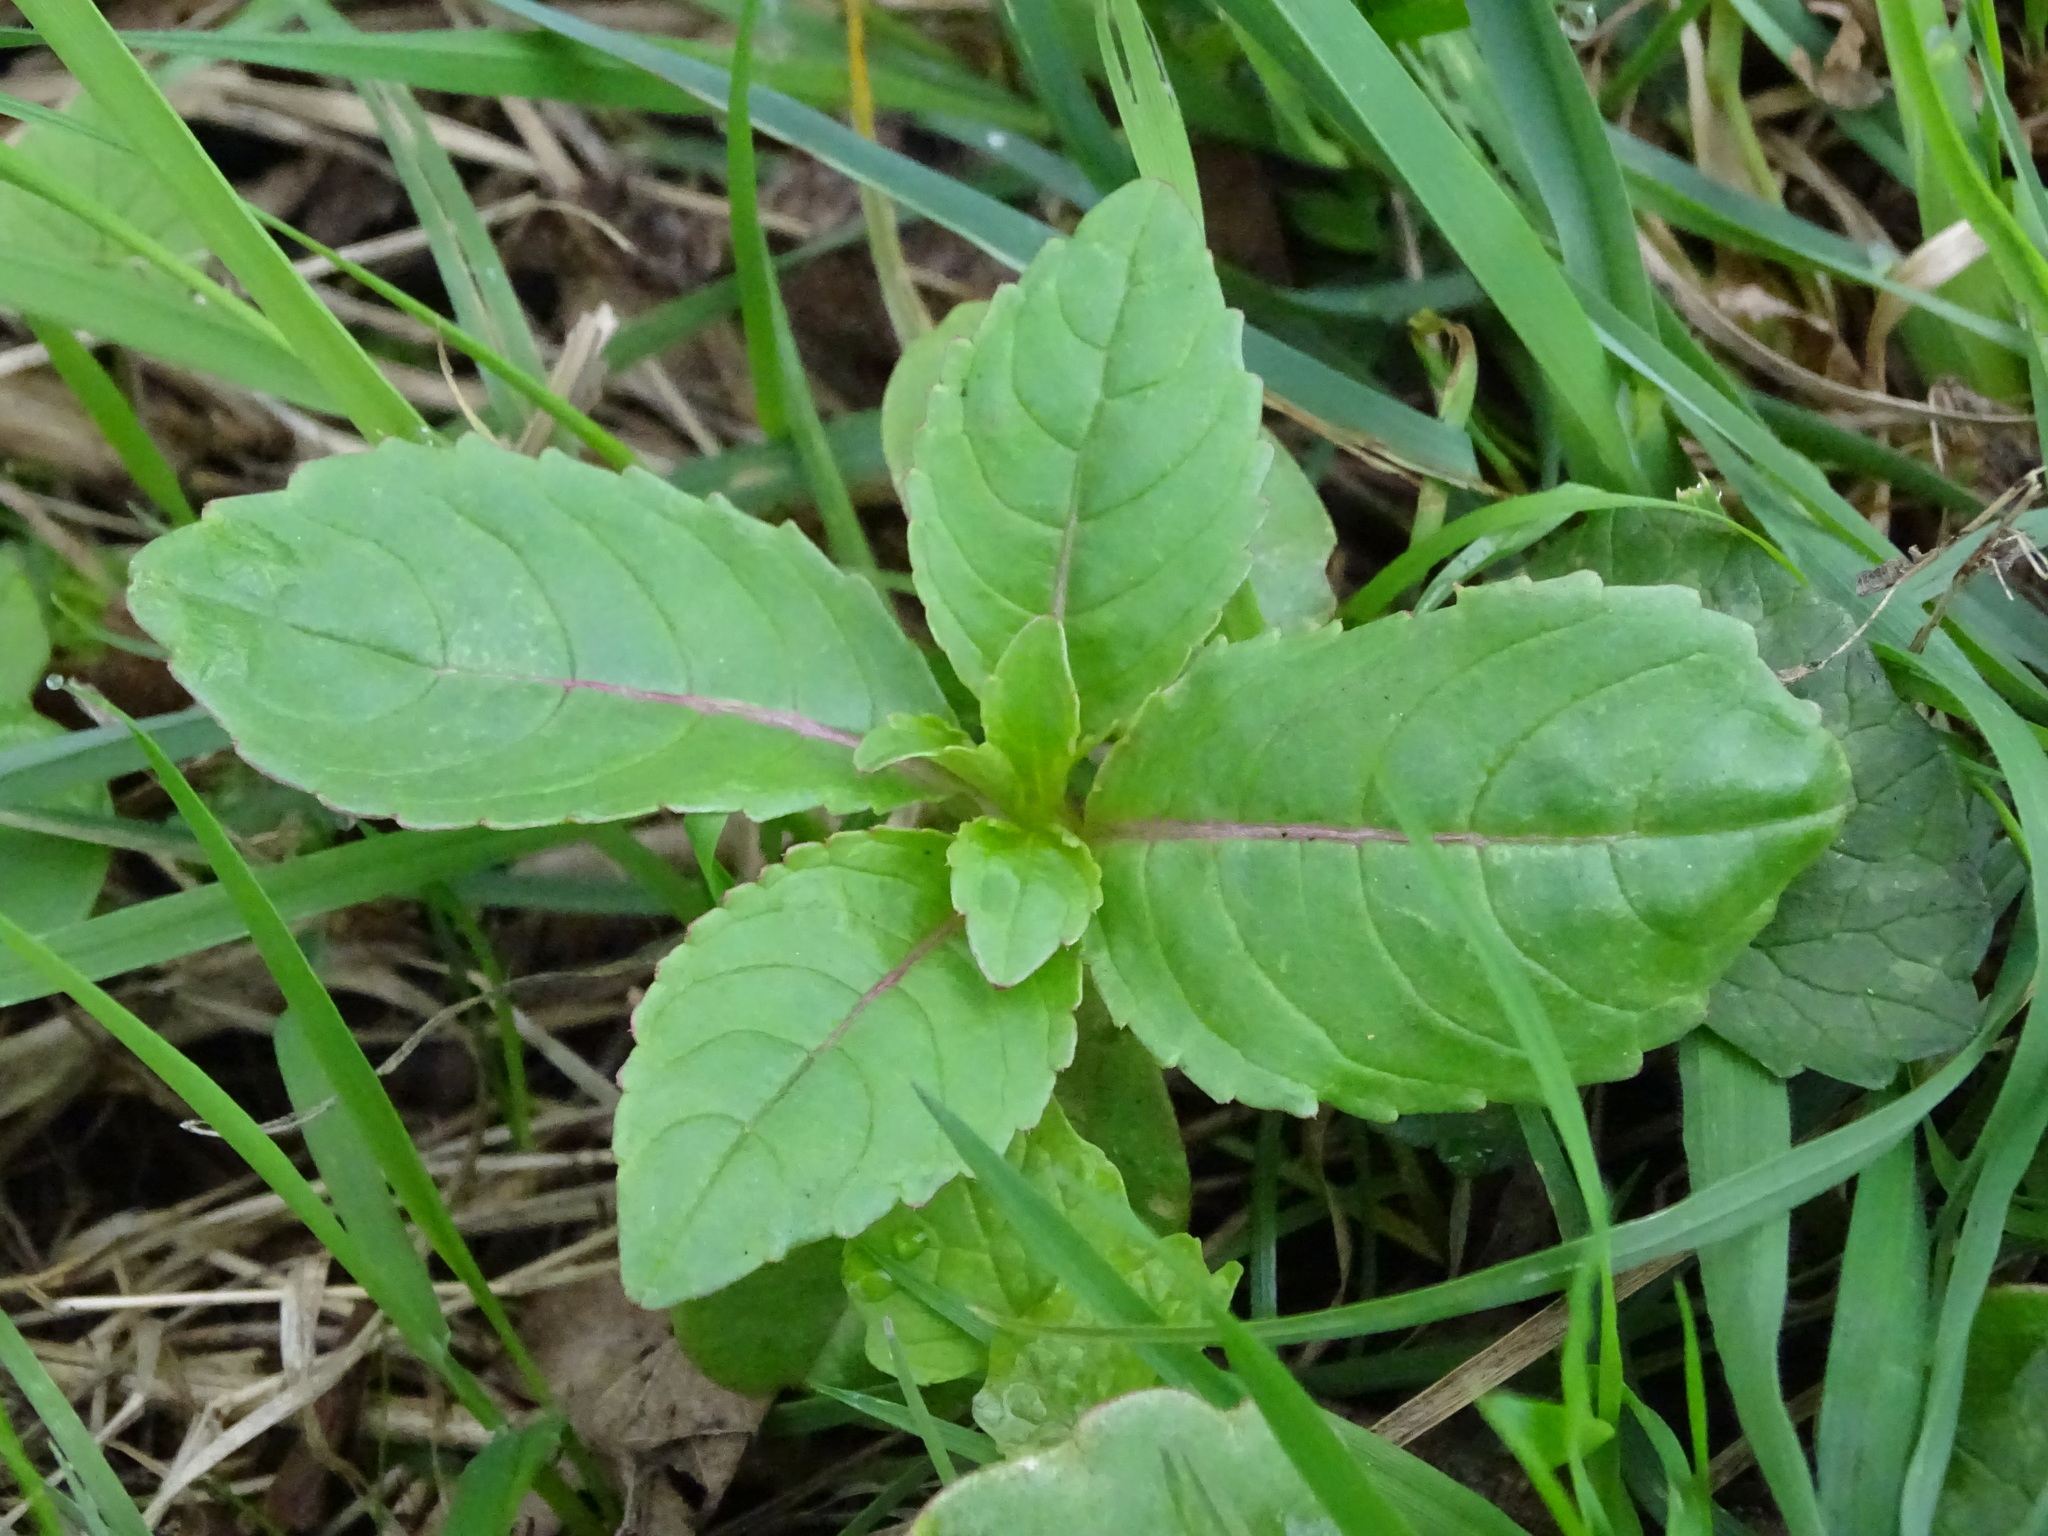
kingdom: Plantae
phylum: Tracheophyta
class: Magnoliopsida
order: Ericales
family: Balsaminaceae
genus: Impatiens
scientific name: Impatiens glandulifera
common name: Himalayan balsam
